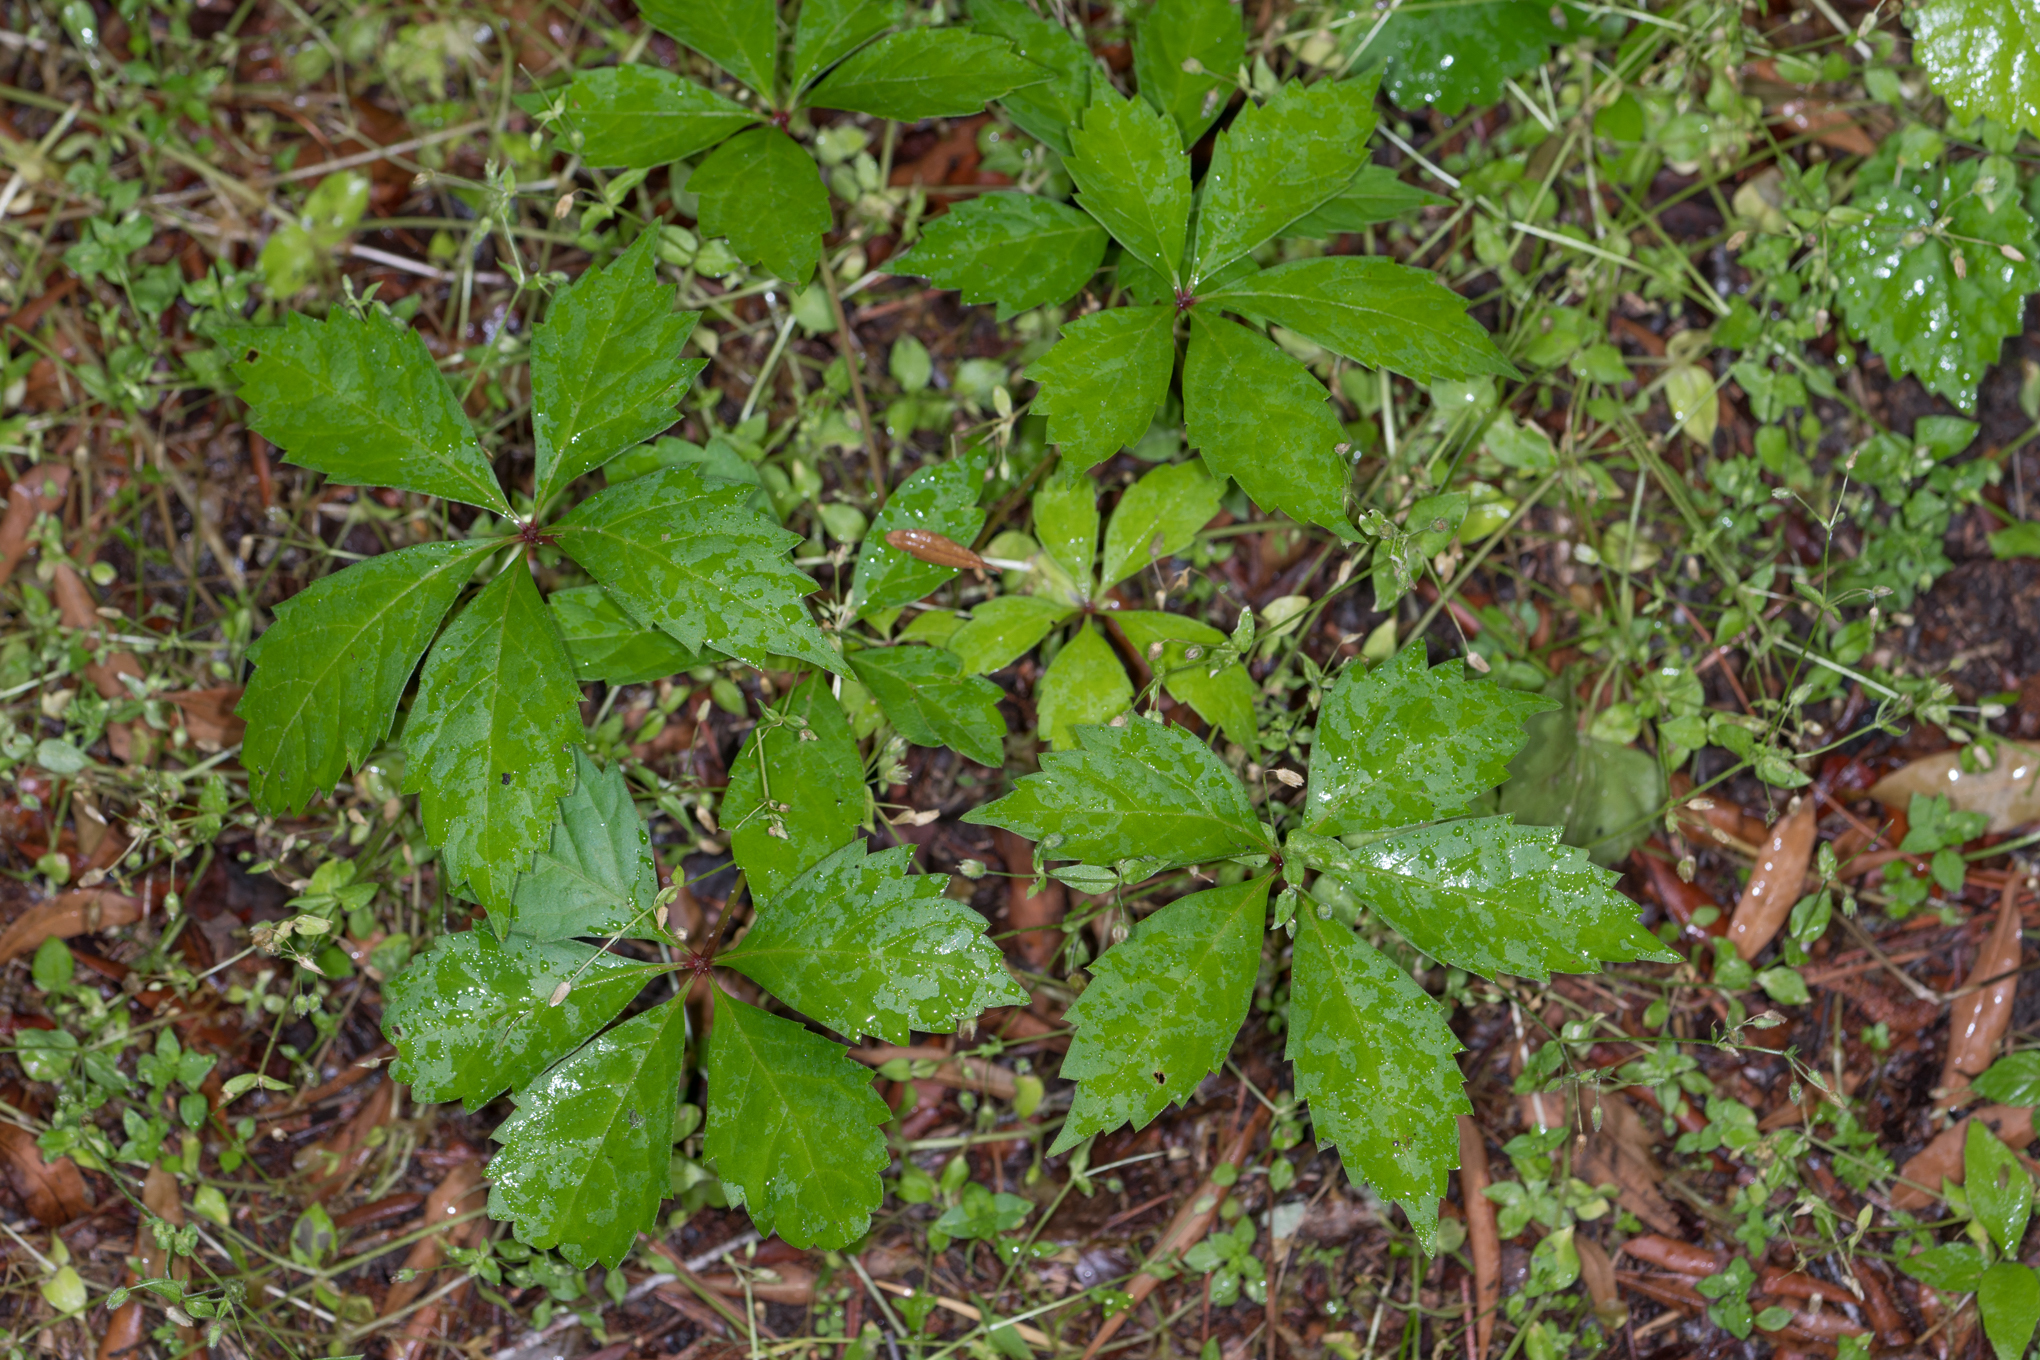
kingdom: Plantae
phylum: Tracheophyta
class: Magnoliopsida
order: Vitales
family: Vitaceae
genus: Parthenocissus
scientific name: Parthenocissus quinquefolia
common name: Virginia-creeper
